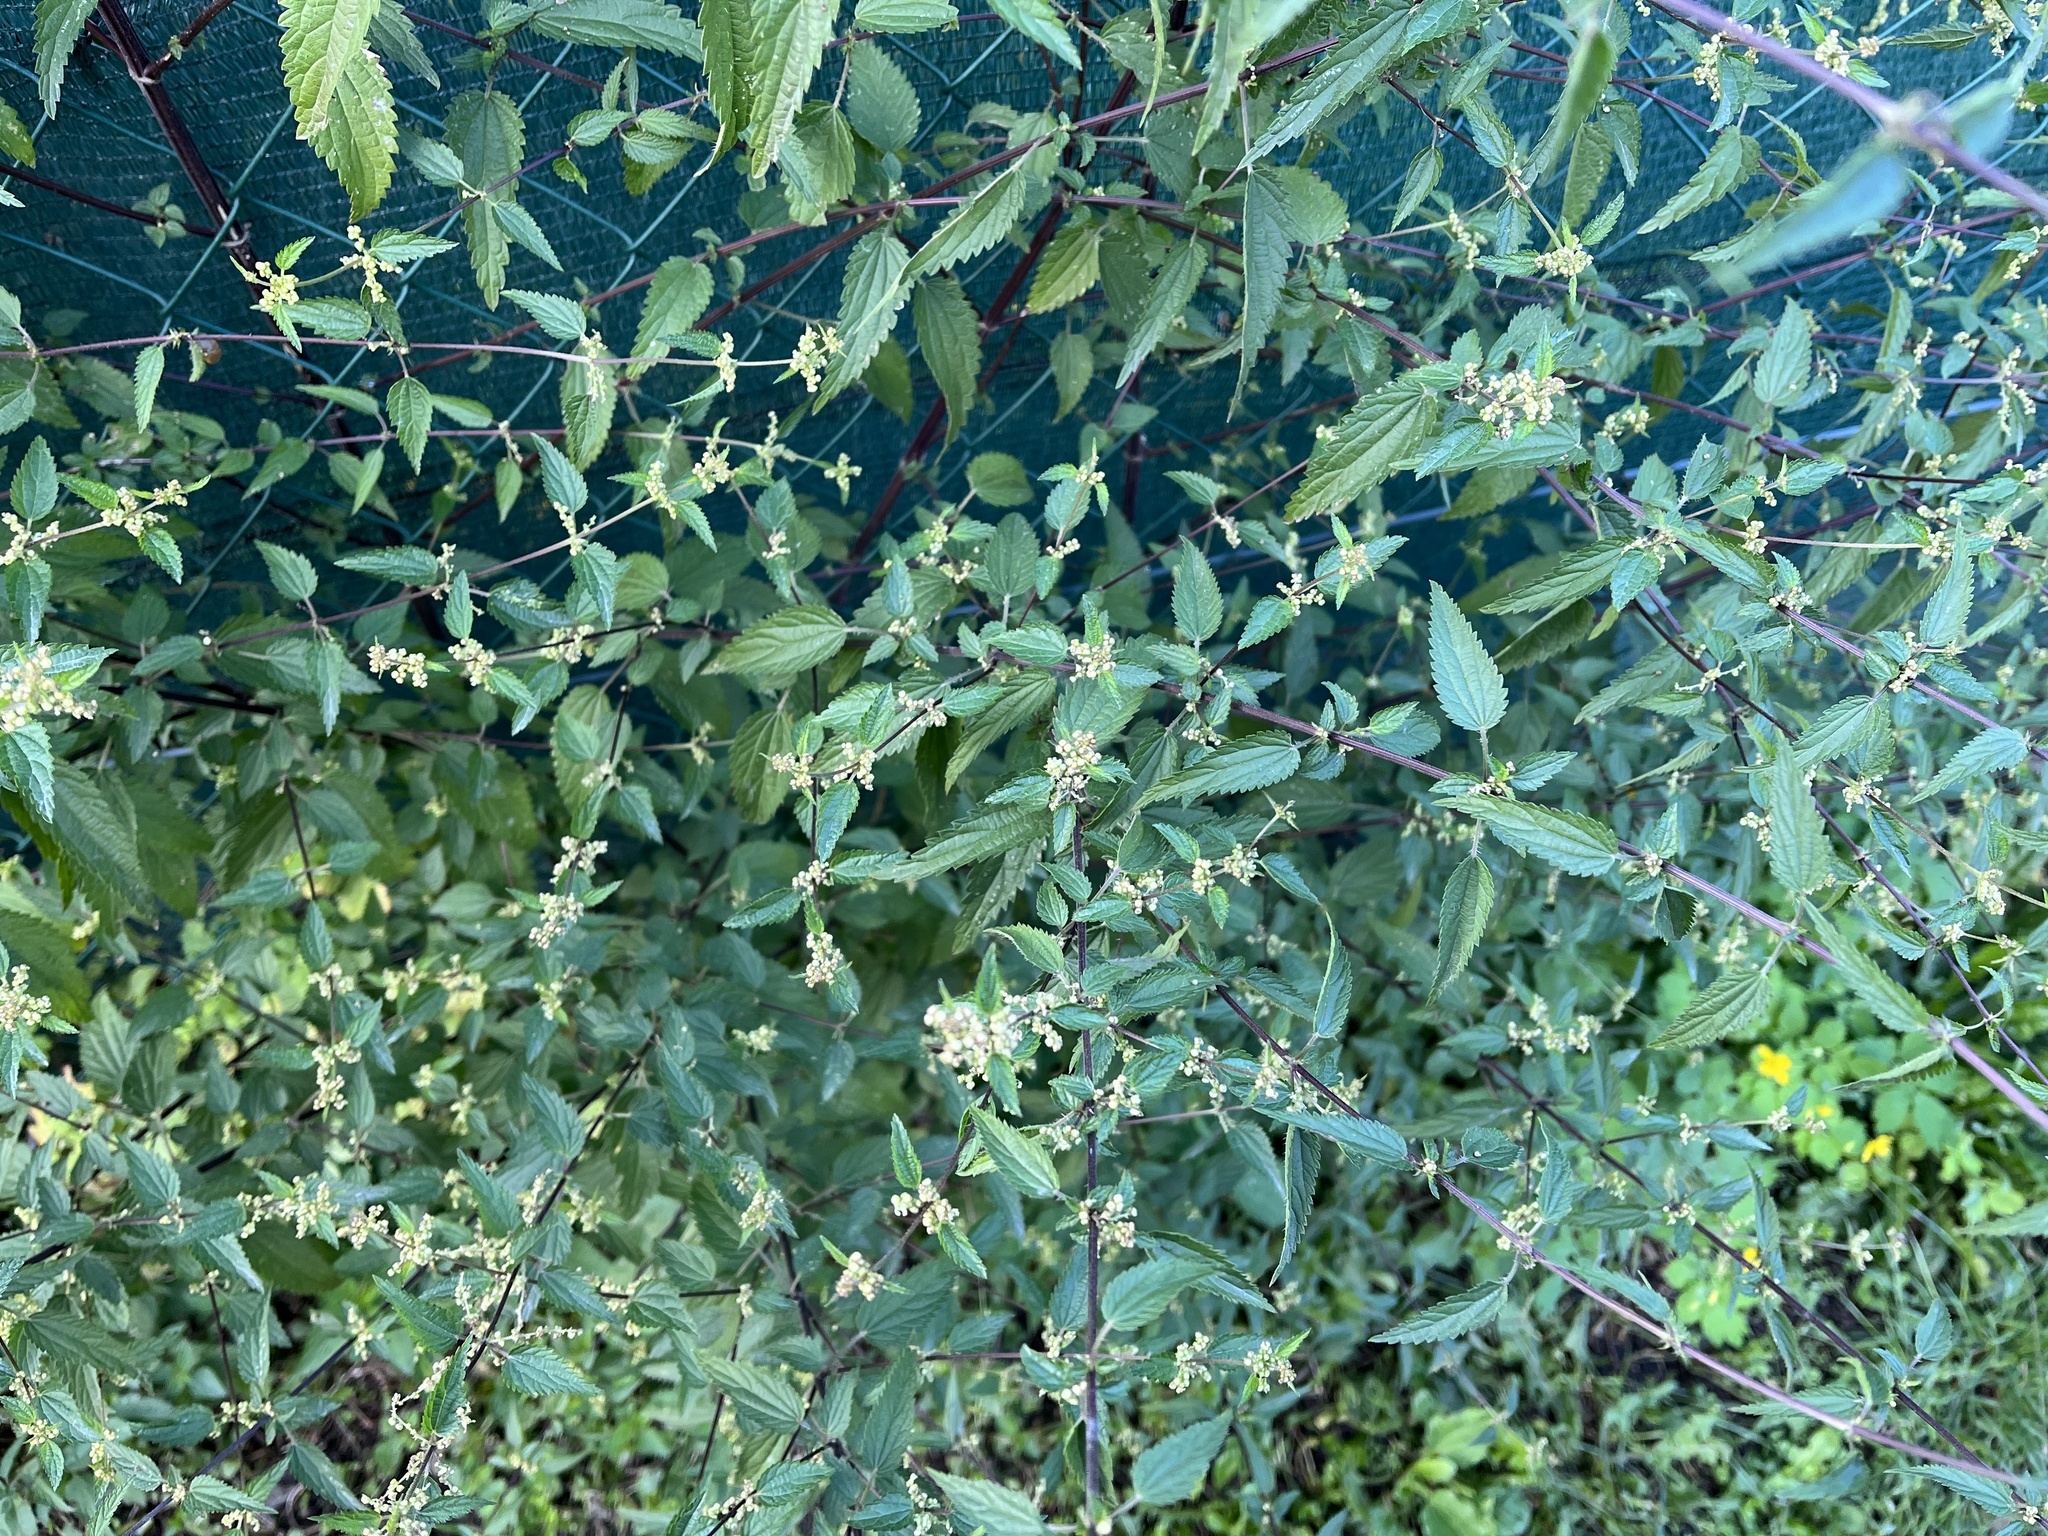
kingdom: Plantae
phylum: Tracheophyta
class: Magnoliopsida
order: Rosales
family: Urticaceae
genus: Urtica
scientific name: Urtica dioica
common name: Common nettle
